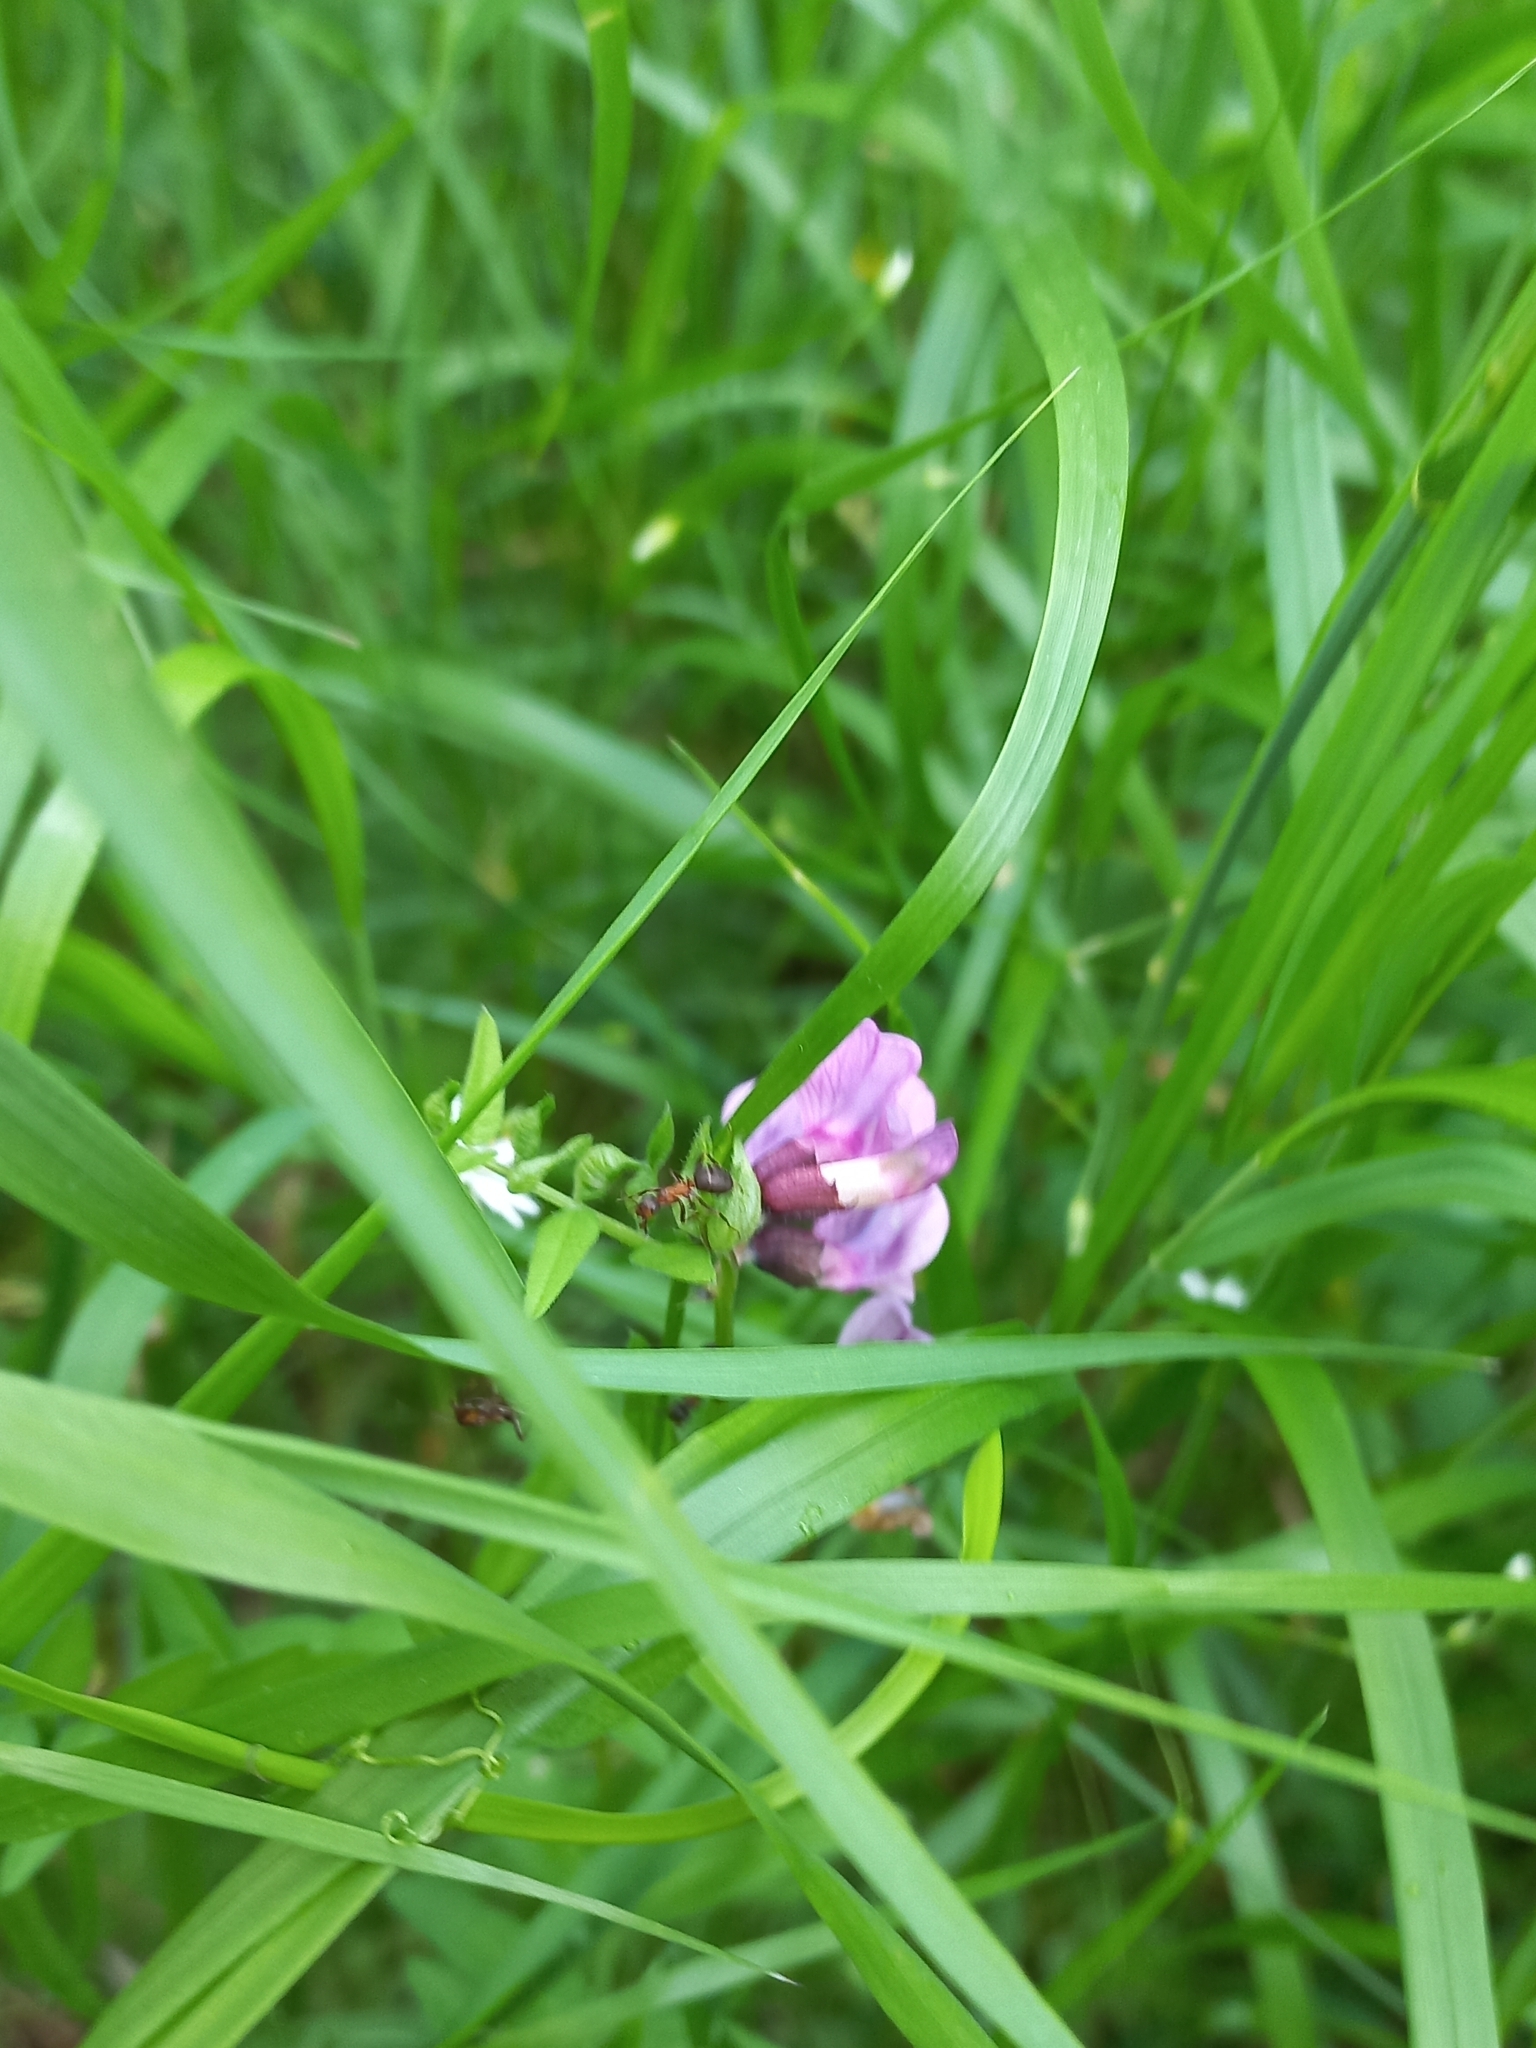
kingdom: Plantae
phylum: Tracheophyta
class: Magnoliopsida
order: Fabales
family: Fabaceae
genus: Vicia
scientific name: Vicia sepium
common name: Bush vetch
